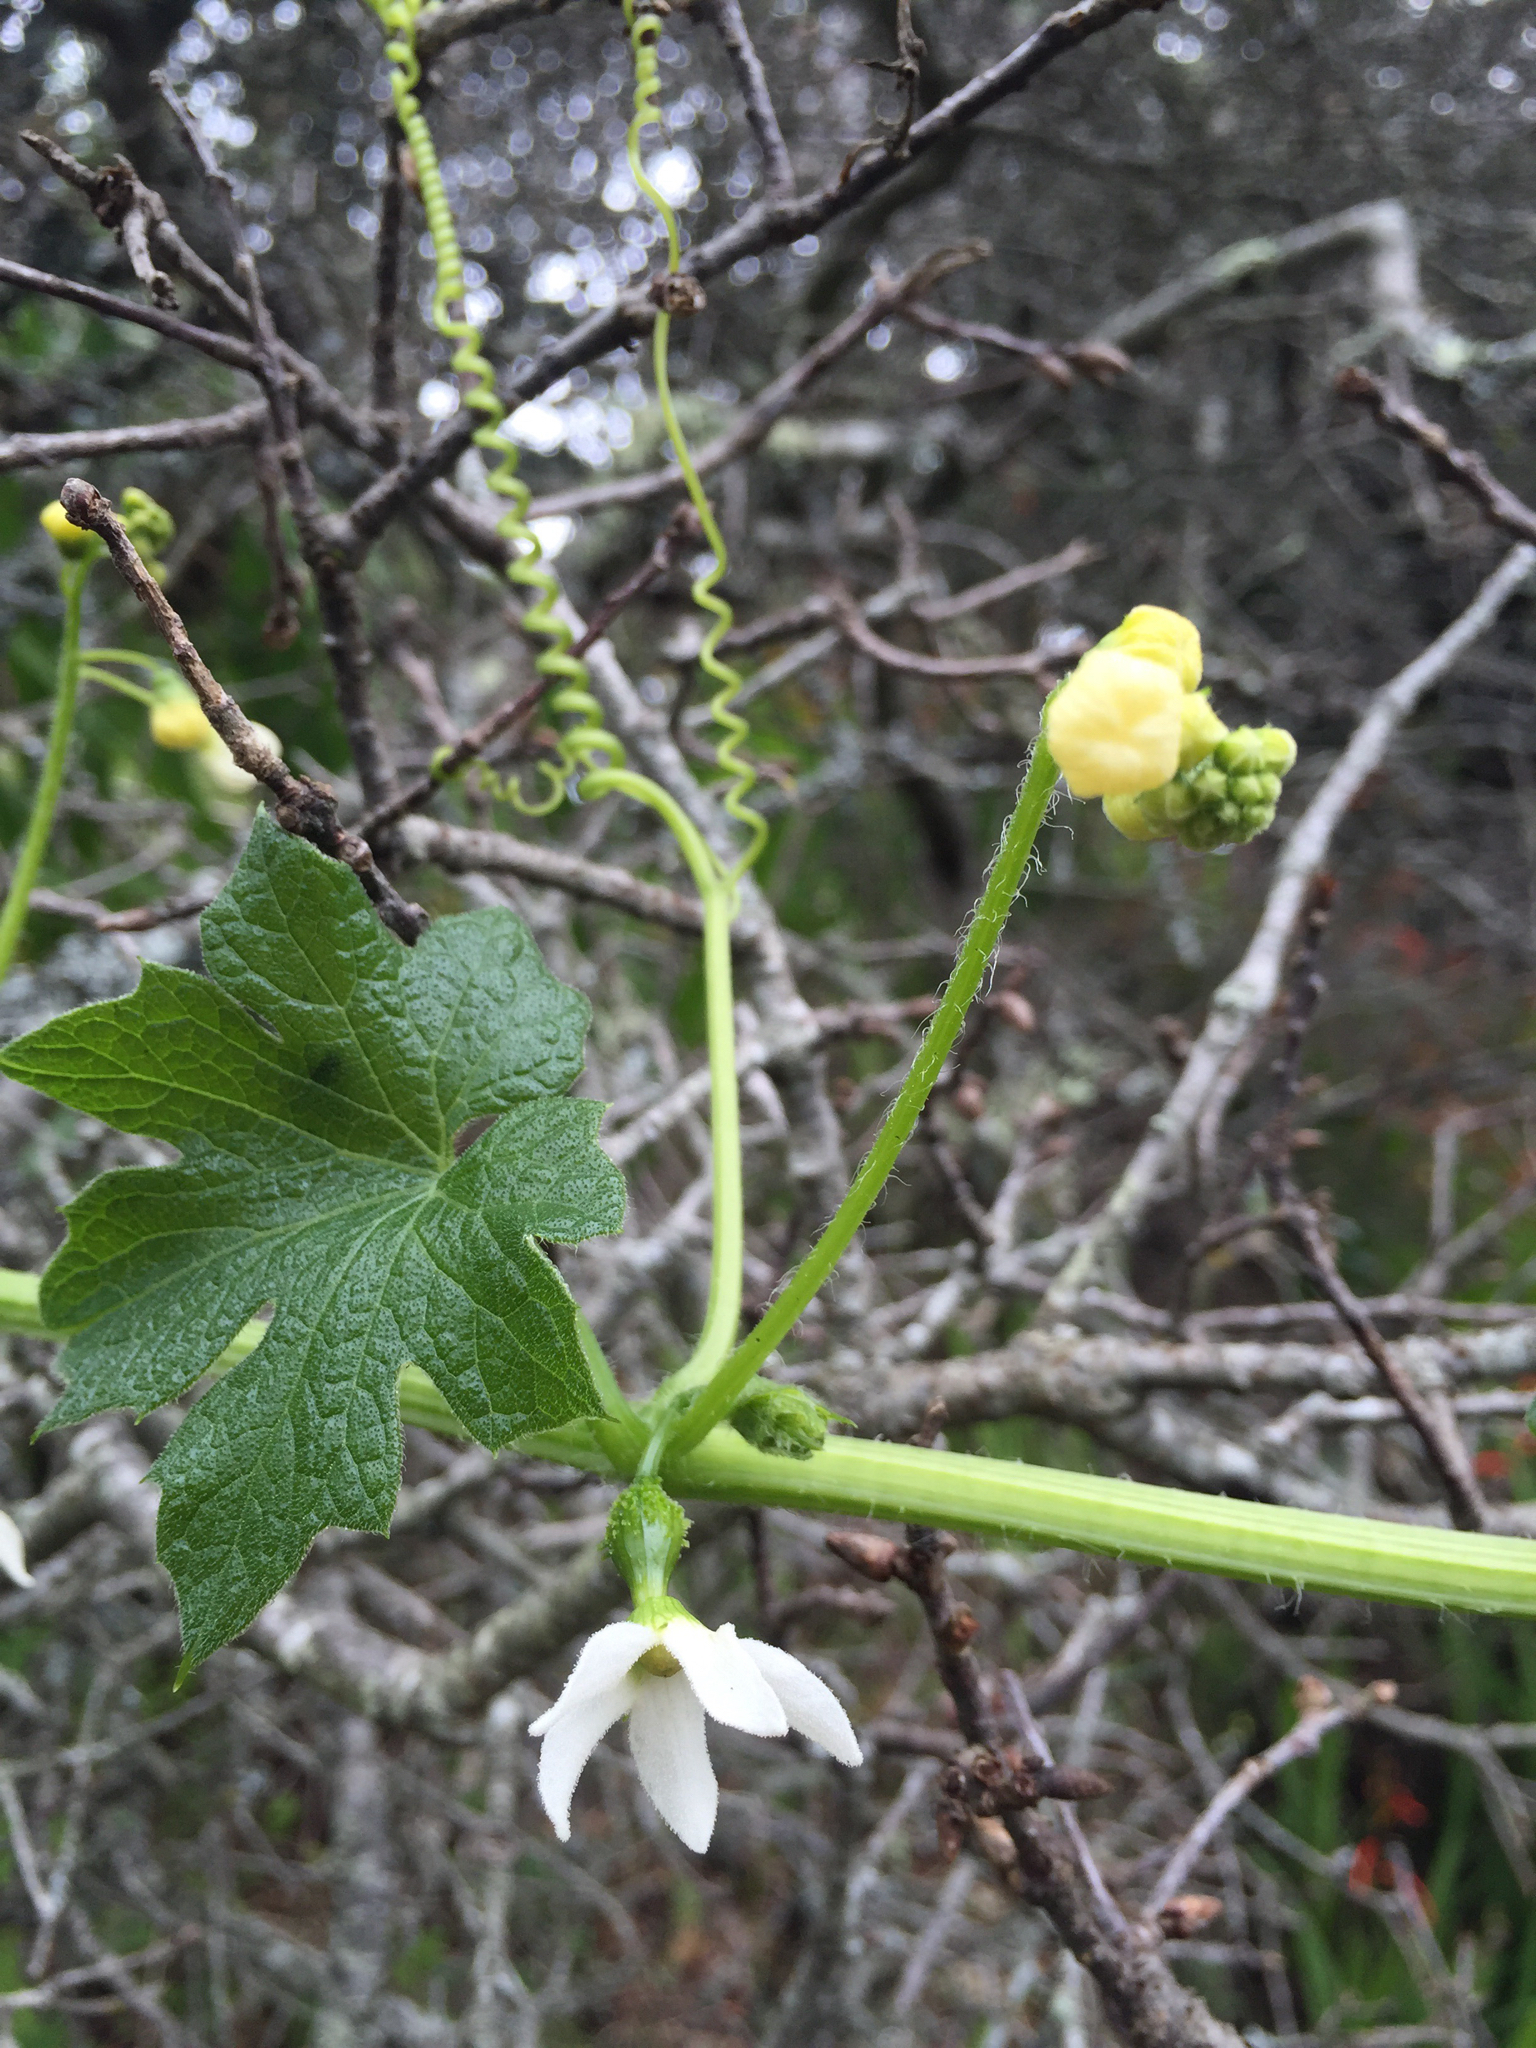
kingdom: Plantae
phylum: Tracheophyta
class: Magnoliopsida
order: Cucurbitales
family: Cucurbitaceae
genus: Marah
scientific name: Marah oregana
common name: Coastal manroot
